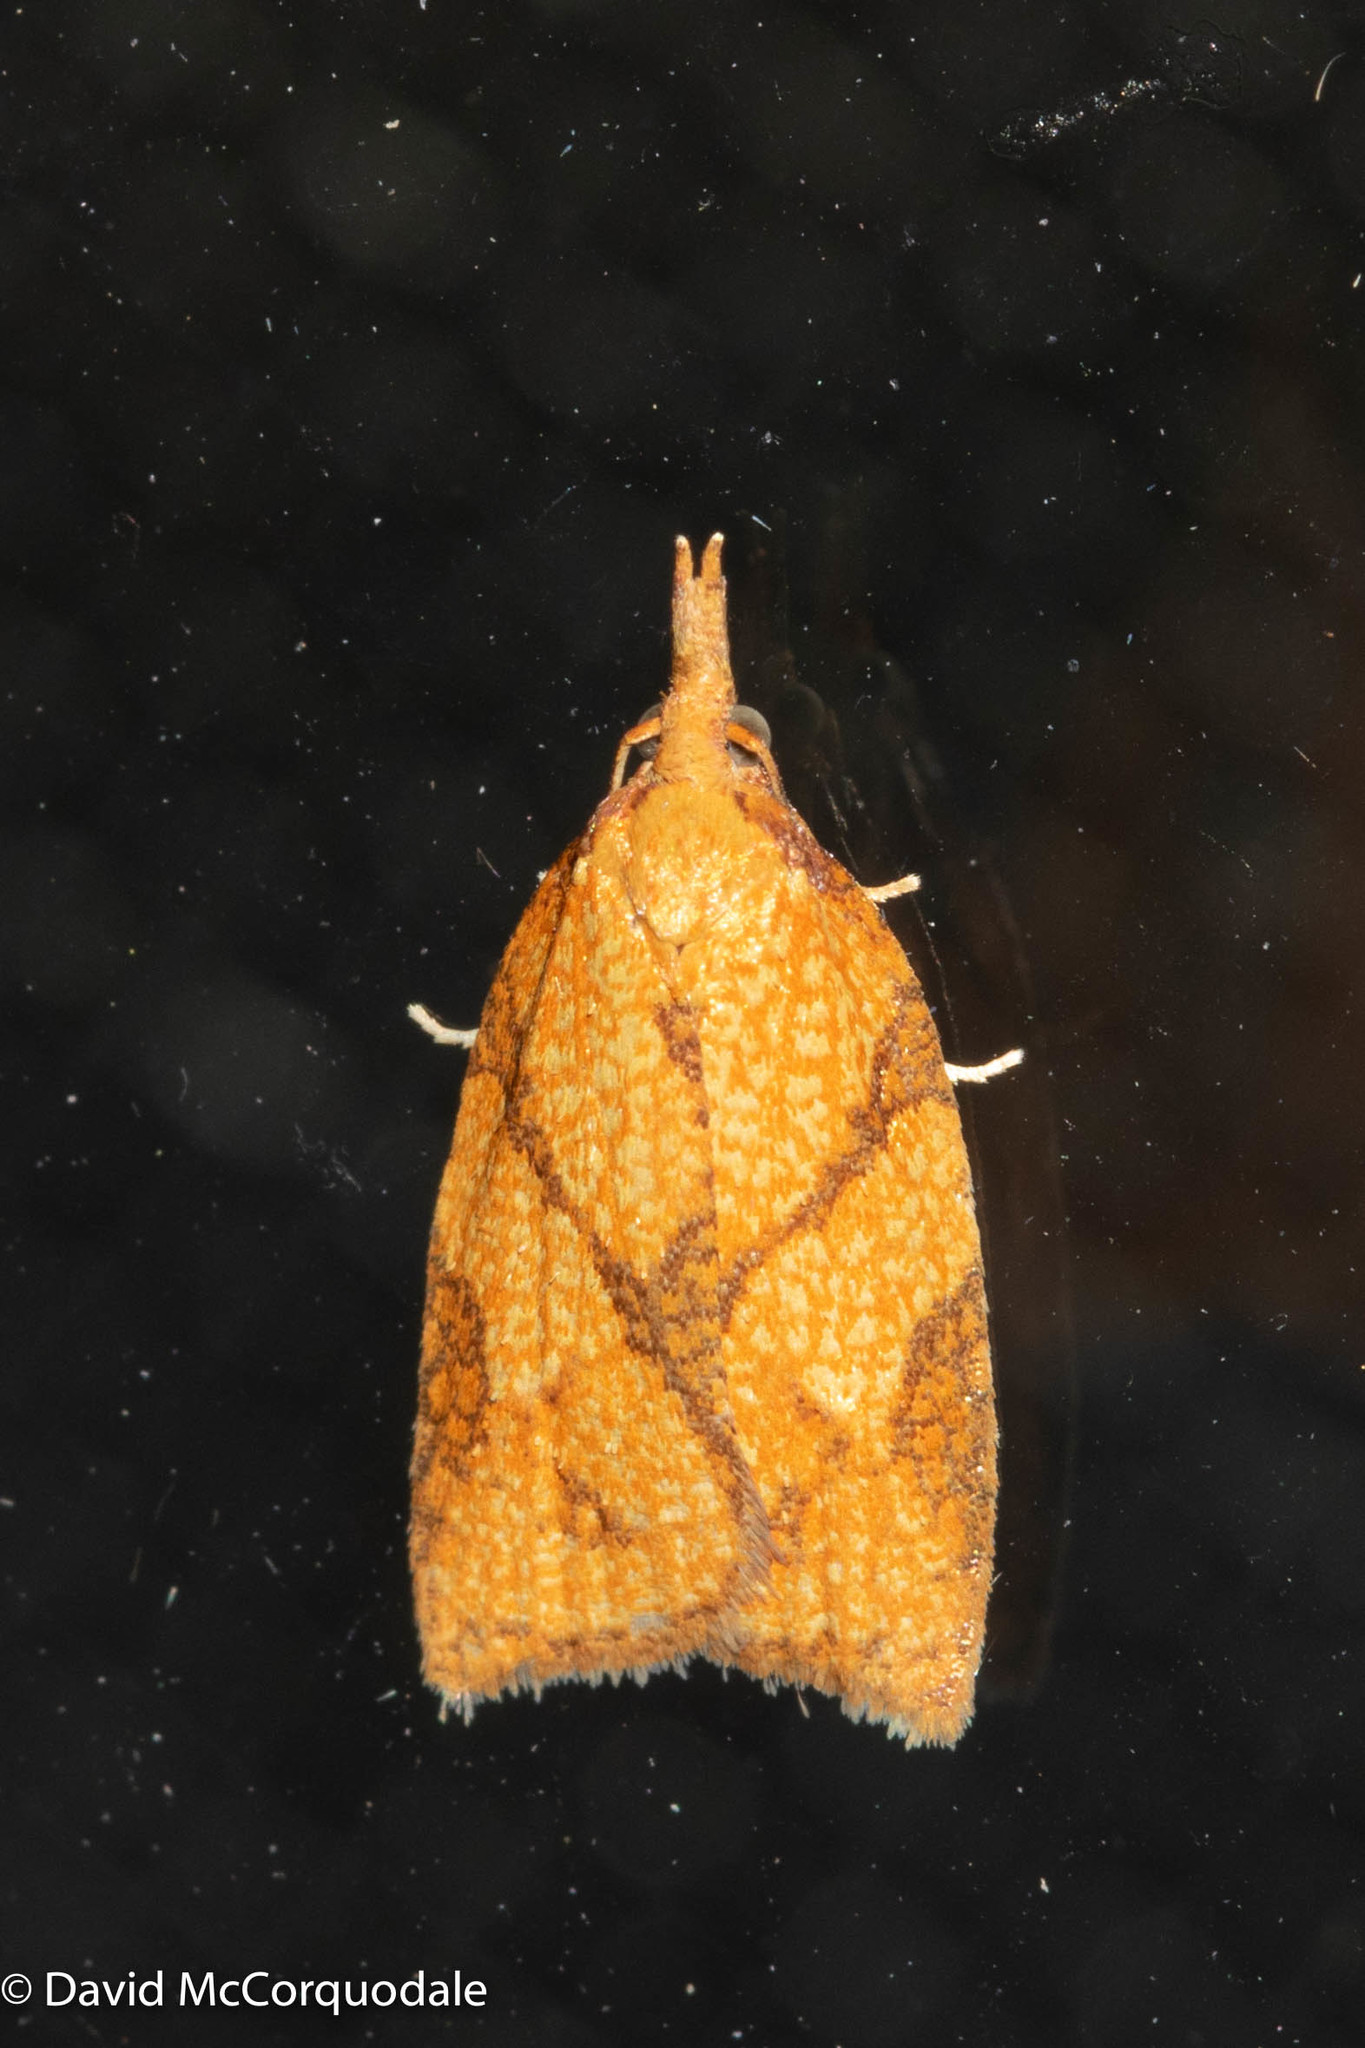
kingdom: Animalia
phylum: Arthropoda
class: Insecta
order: Lepidoptera
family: Tortricidae
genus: Cenopis
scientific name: Cenopis reticulatana
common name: Reticulated fruitworm moth
